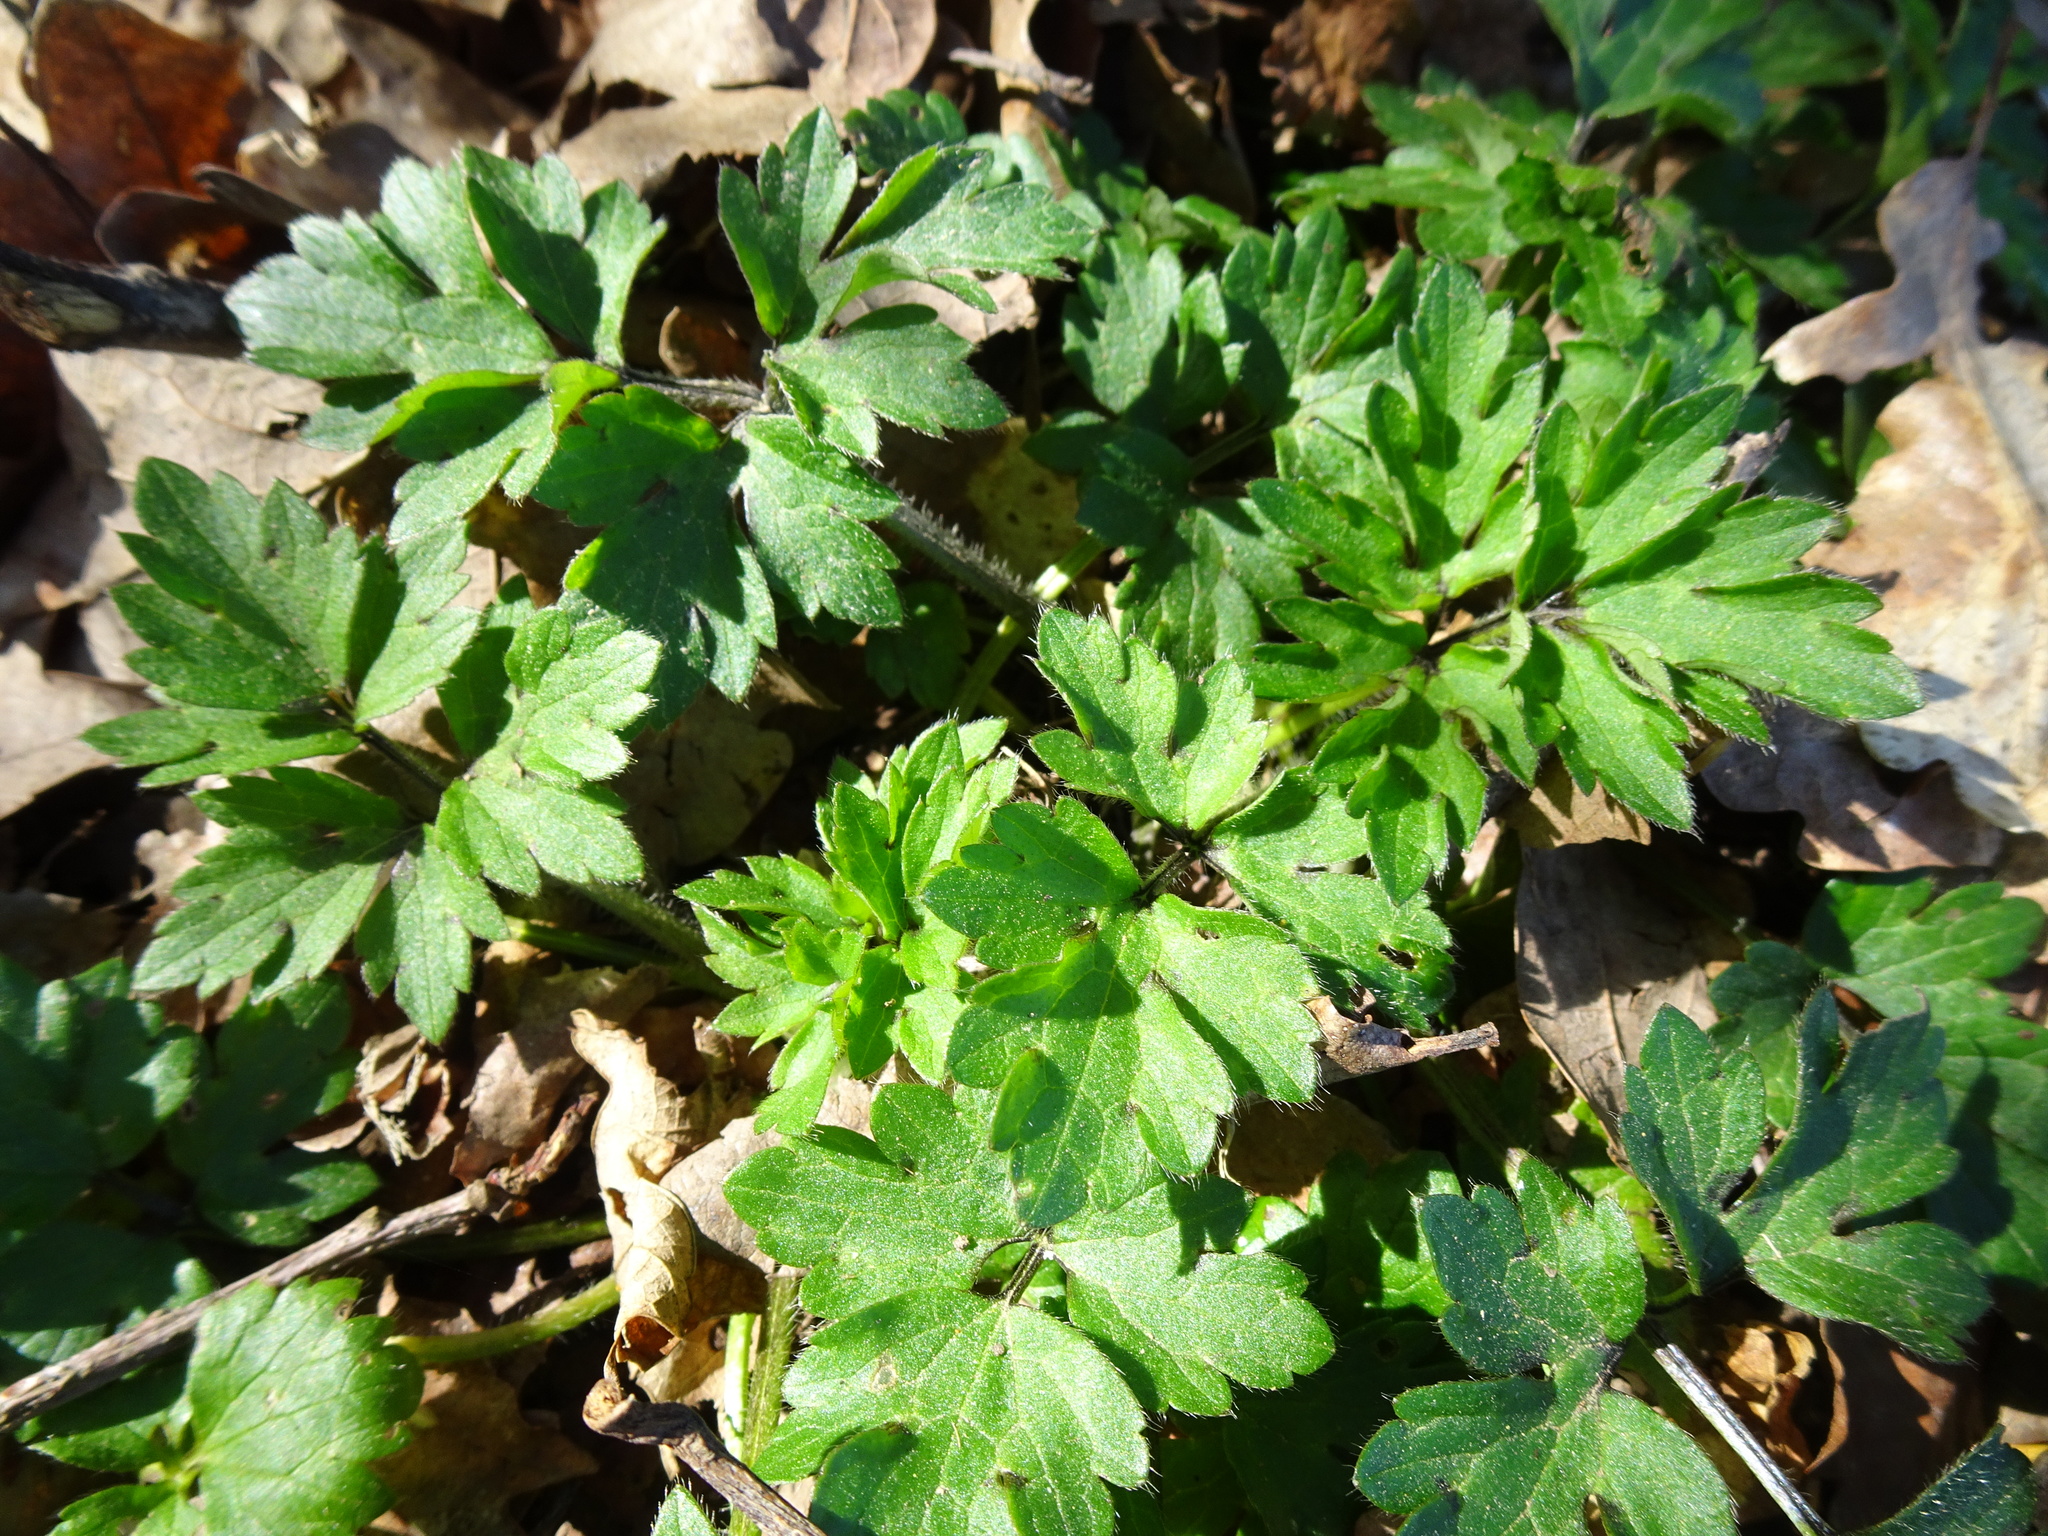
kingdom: Plantae
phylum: Tracheophyta
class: Magnoliopsida
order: Ranunculales
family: Ranunculaceae
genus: Ranunculus
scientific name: Ranunculus repens
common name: Creeping buttercup
